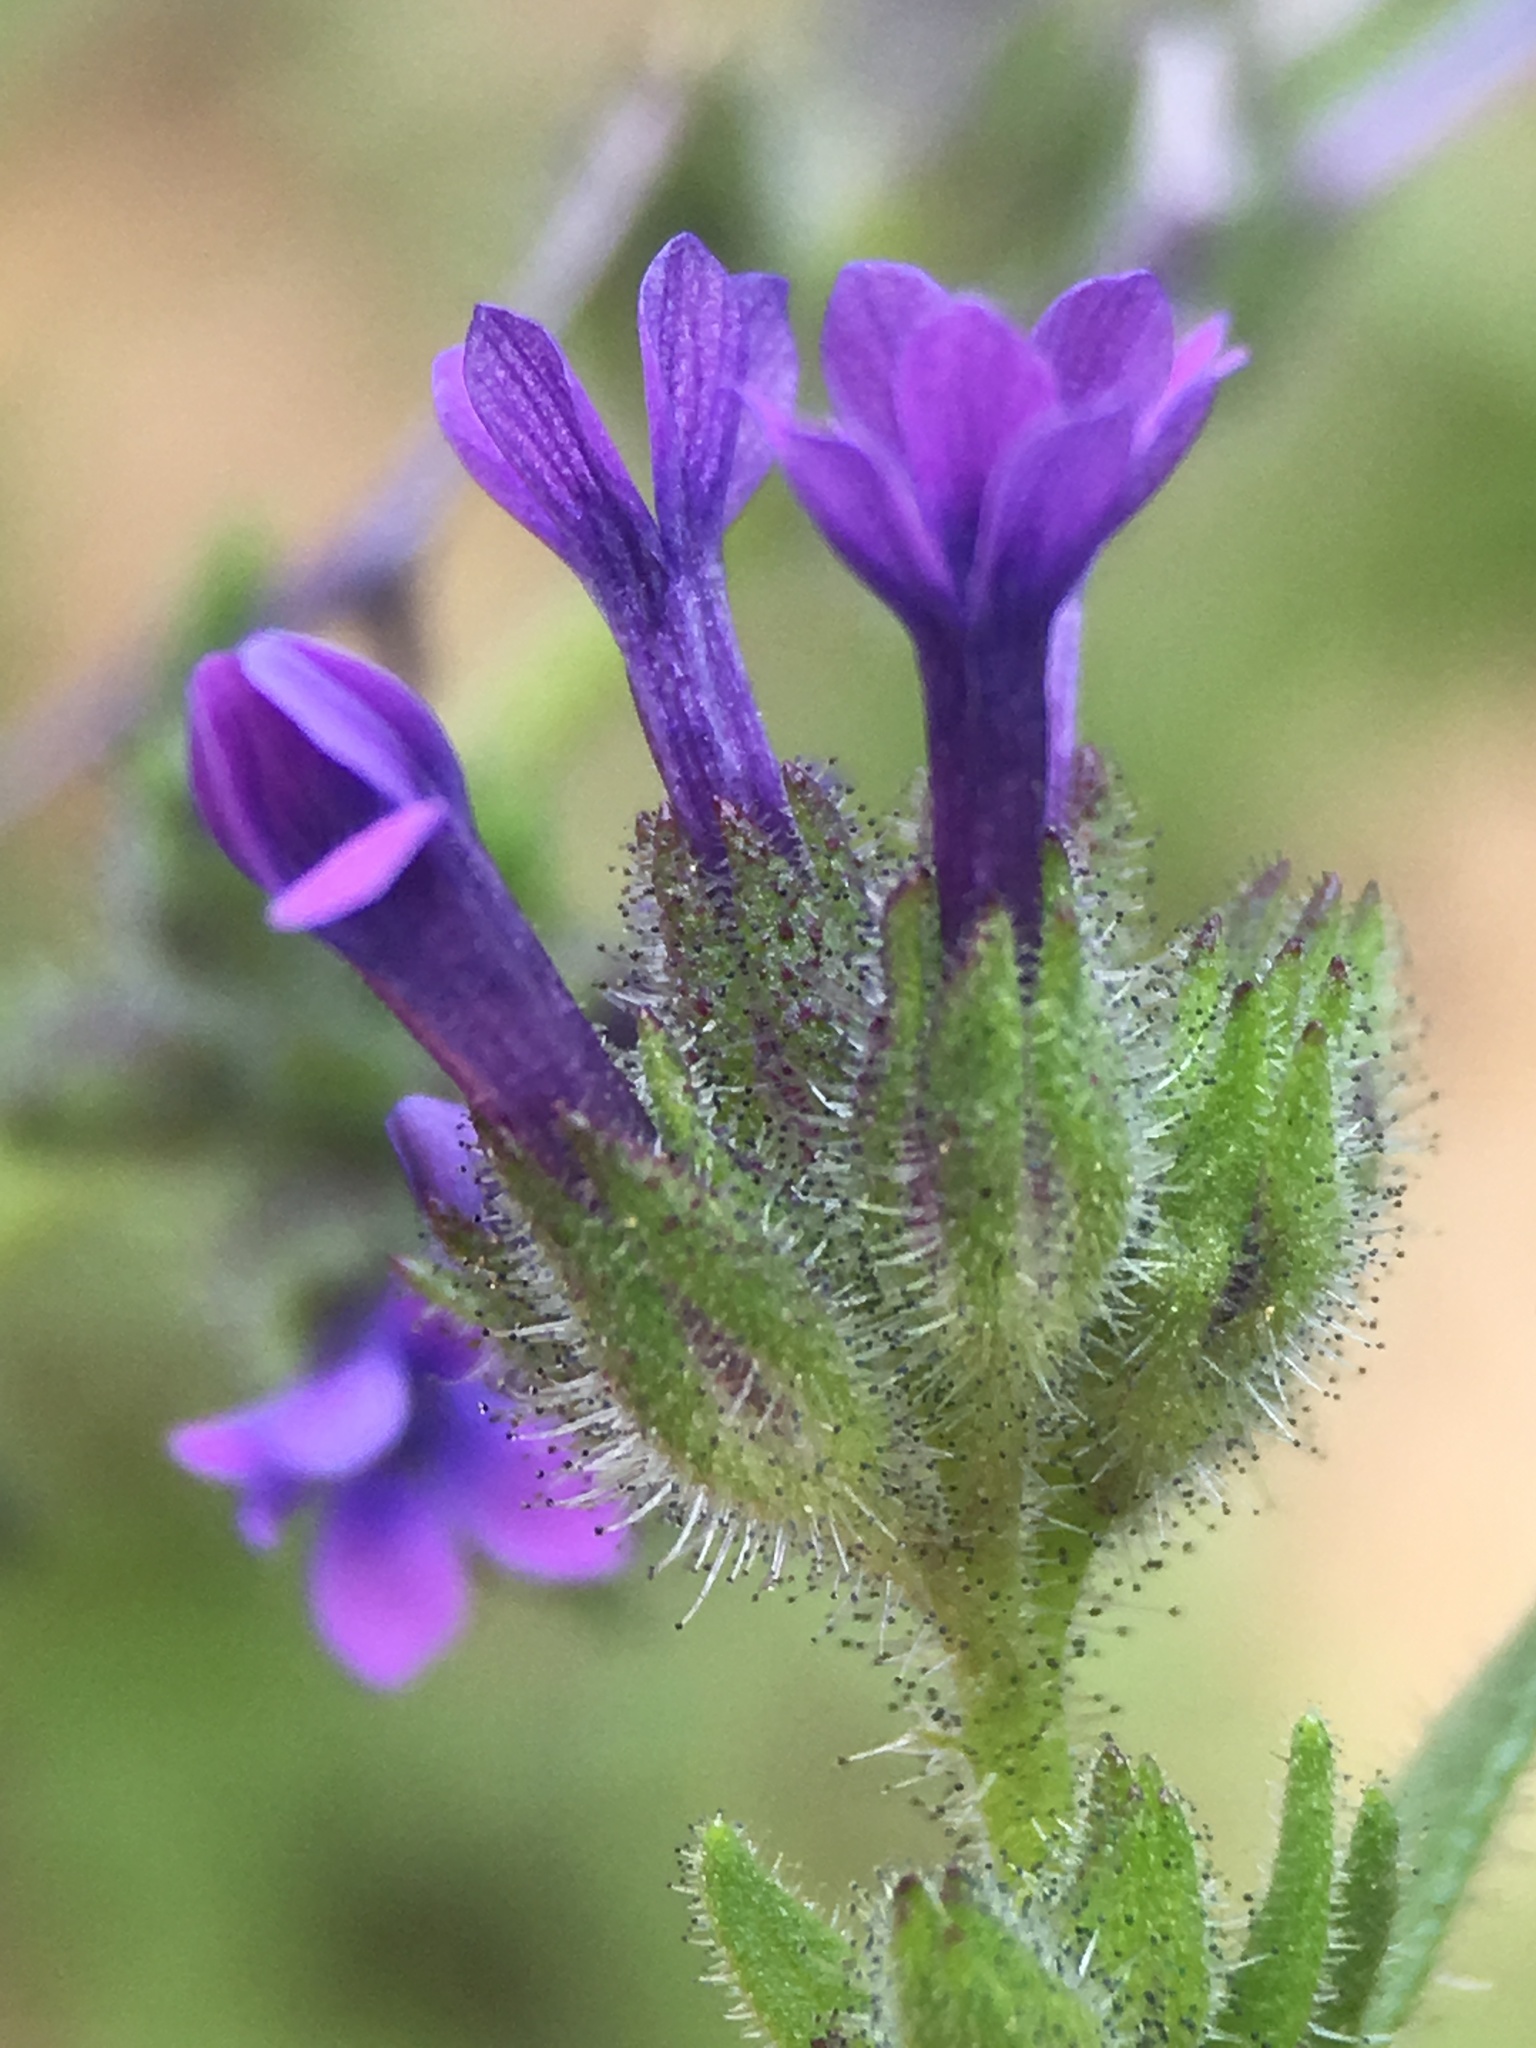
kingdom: Plantae
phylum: Tracheophyta
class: Magnoliopsida
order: Ericales
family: Polemoniaceae
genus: Allophyllum
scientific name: Allophyllum gilioides
